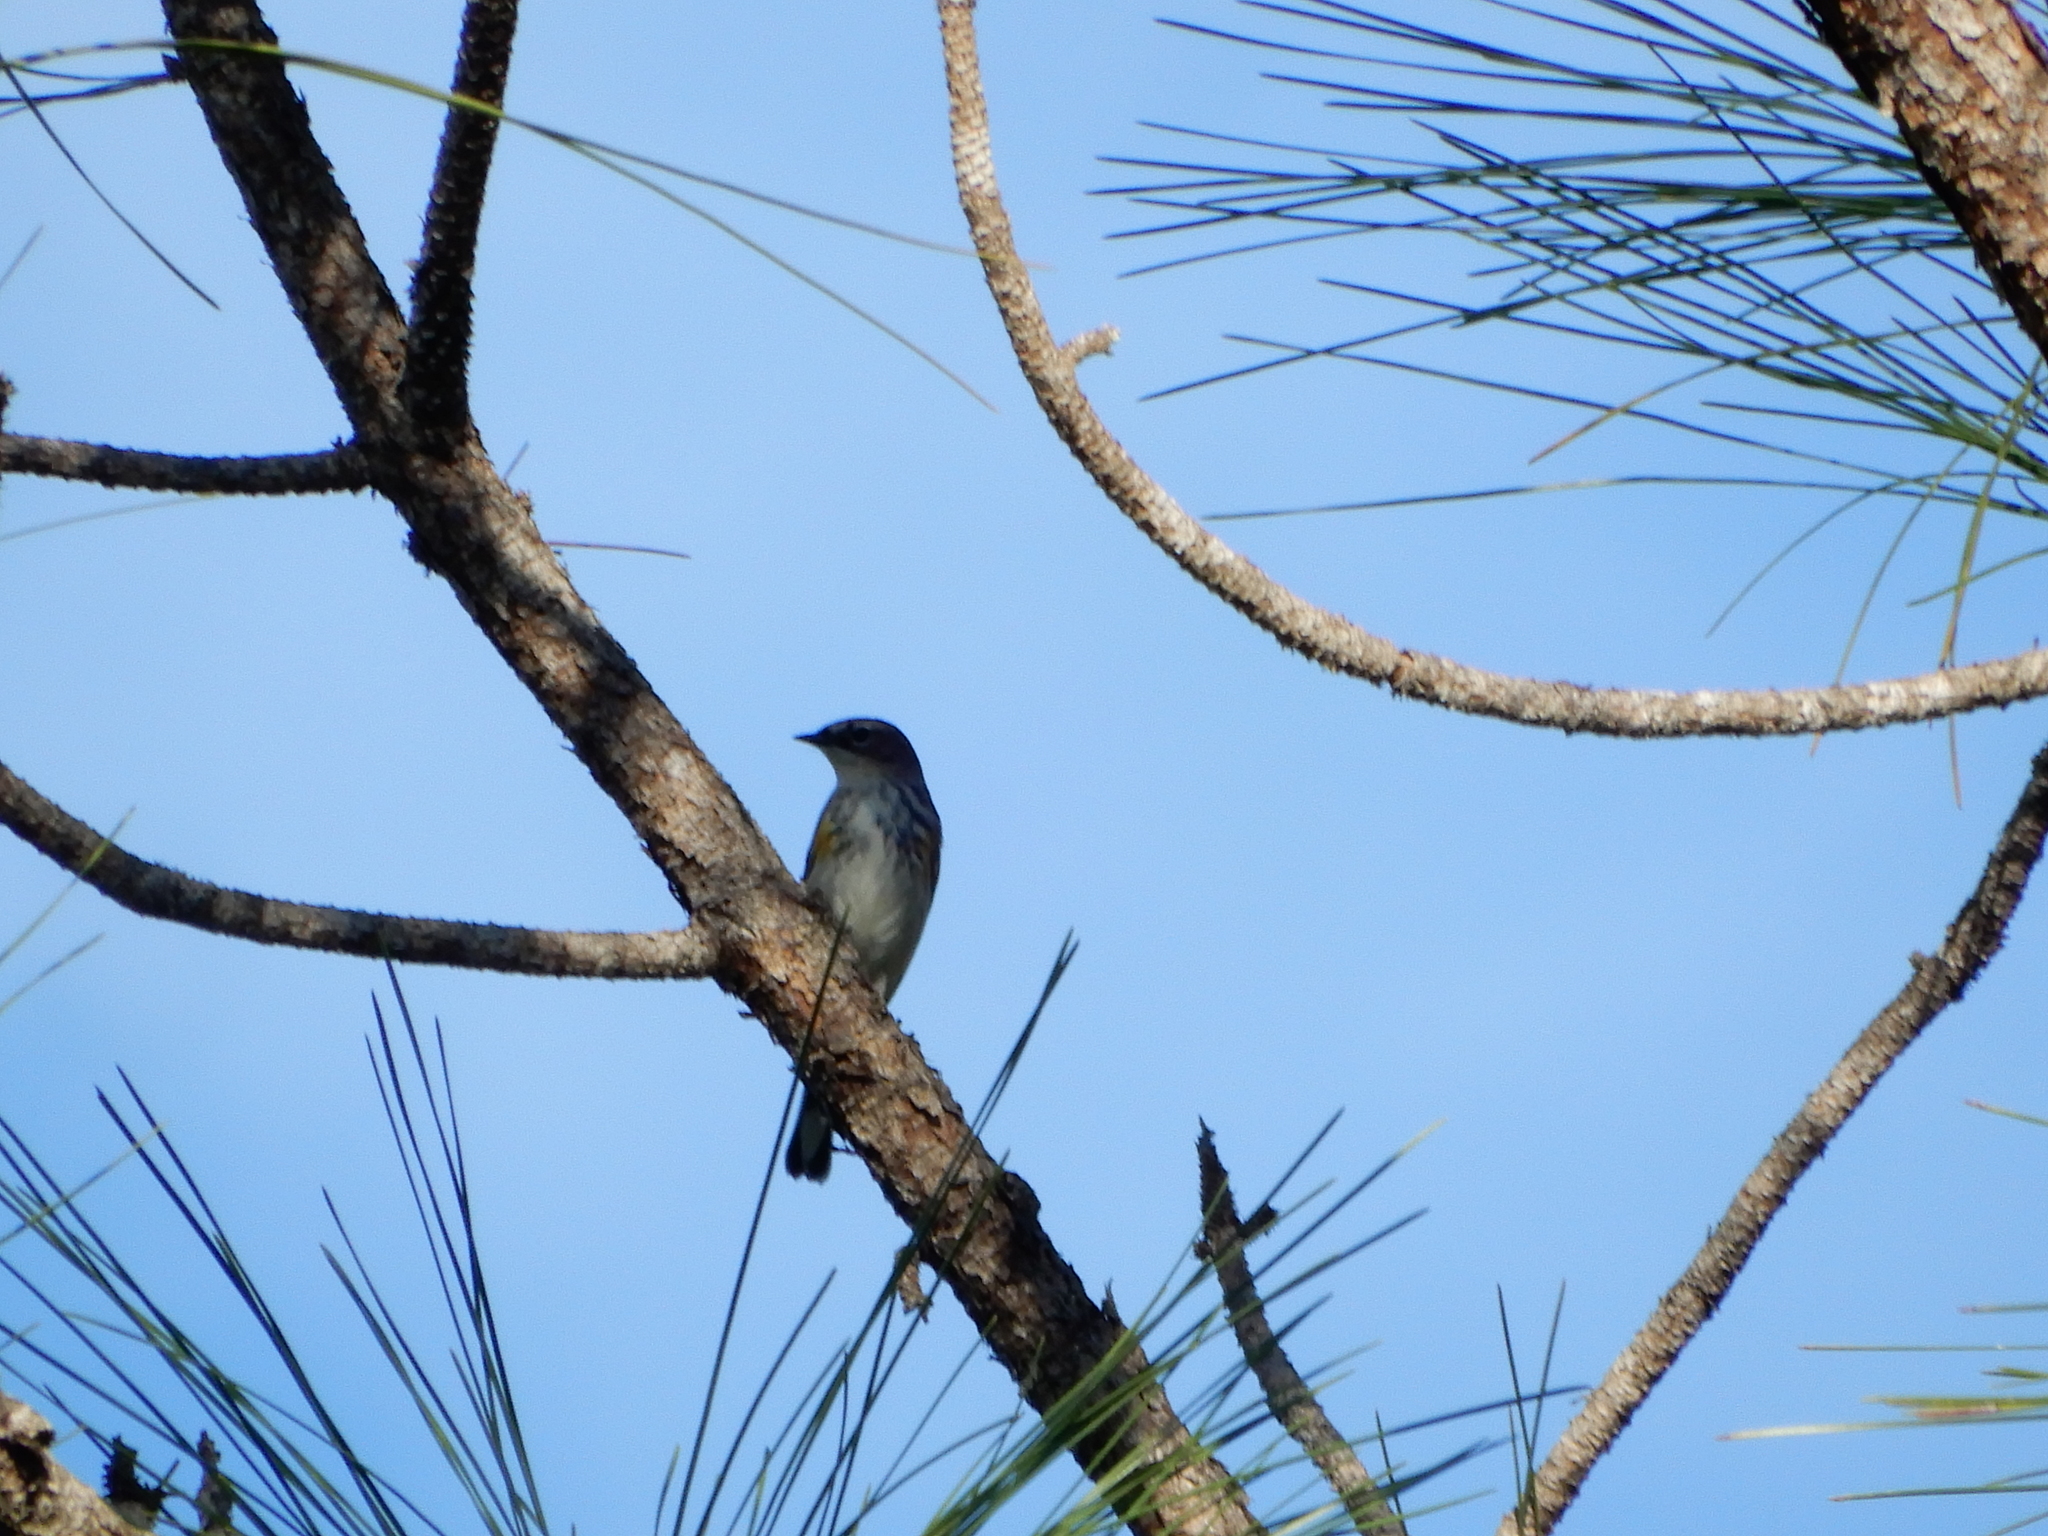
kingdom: Animalia
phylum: Chordata
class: Aves
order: Passeriformes
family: Parulidae
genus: Setophaga
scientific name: Setophaga coronata
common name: Myrtle warbler
